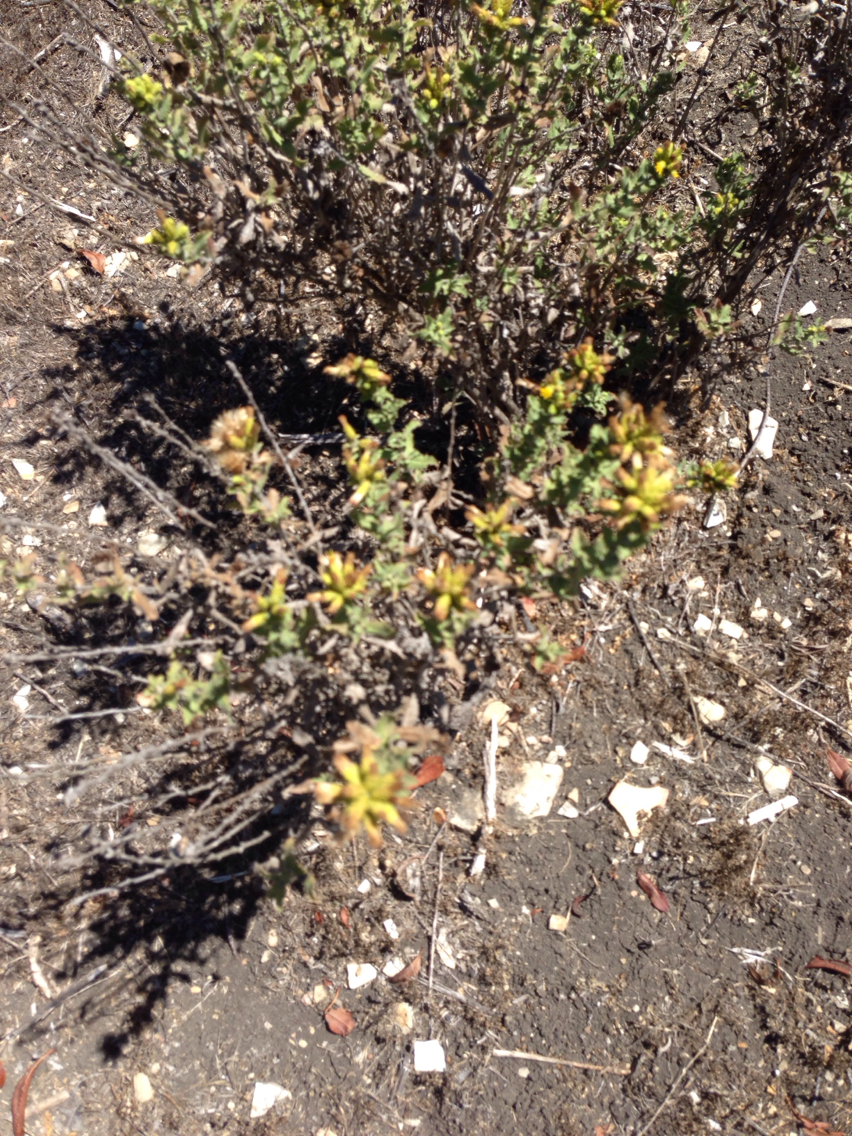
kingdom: Plantae
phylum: Tracheophyta
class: Magnoliopsida
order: Asterales
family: Asteraceae
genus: Hazardia
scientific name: Hazardia squarrosa
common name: Saw-tooth goldenbush
